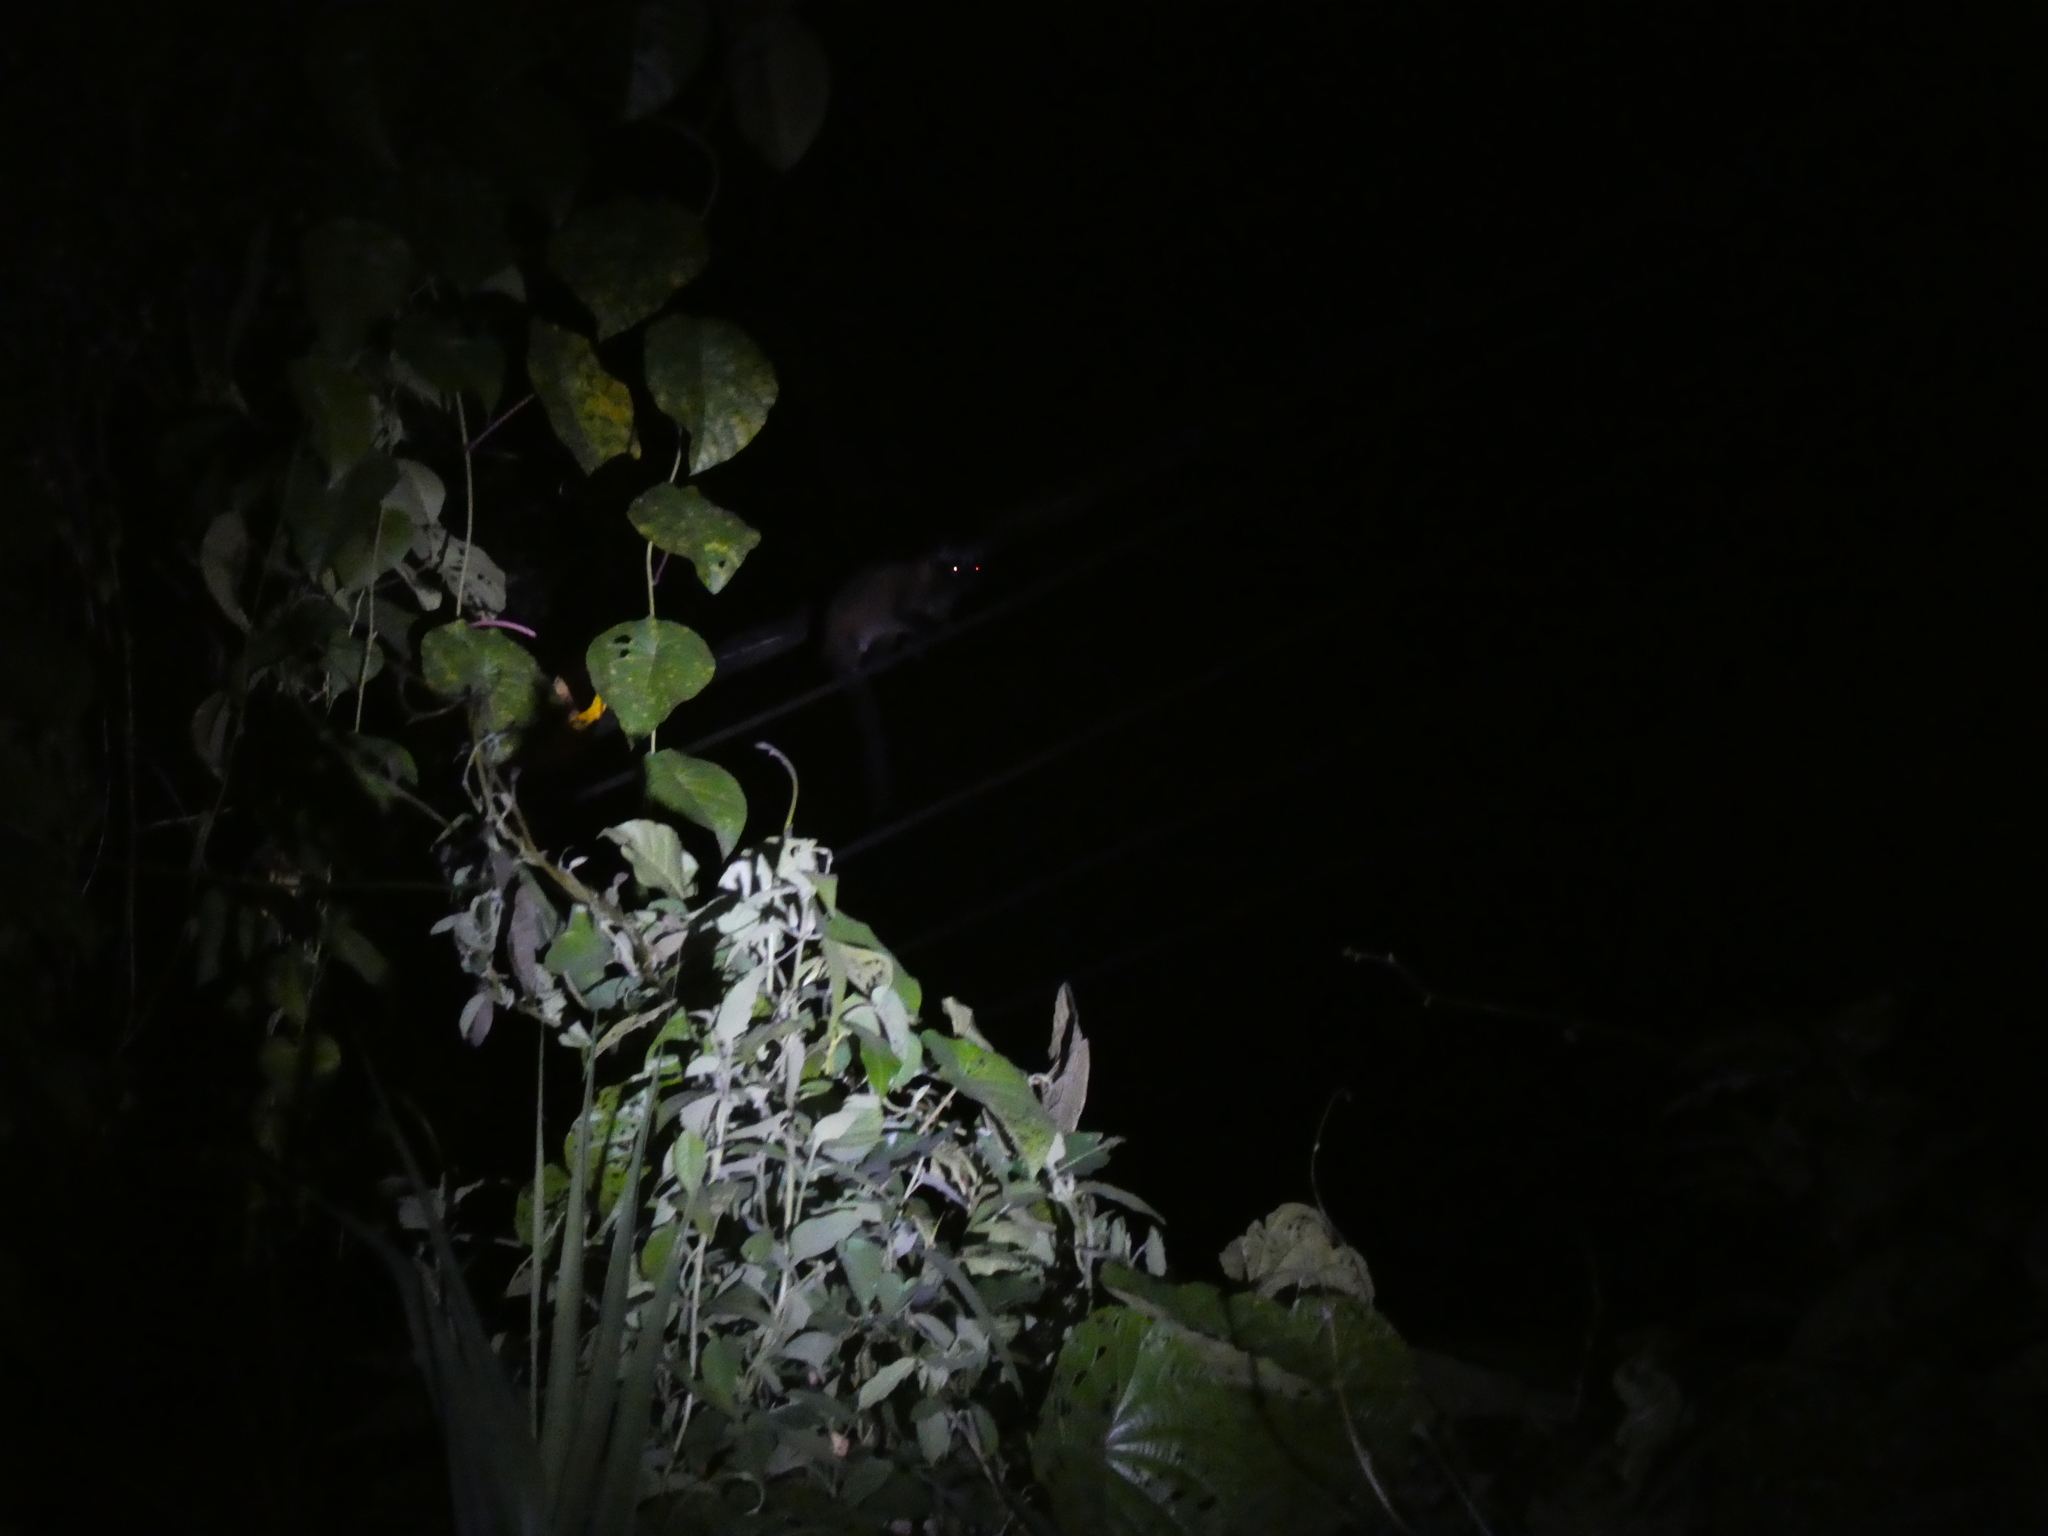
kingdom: Animalia
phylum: Chordata
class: Mammalia
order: Carnivora
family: Viverridae
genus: Paradoxurus
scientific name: Paradoxurus hermaphroditus
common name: Common palm civet
